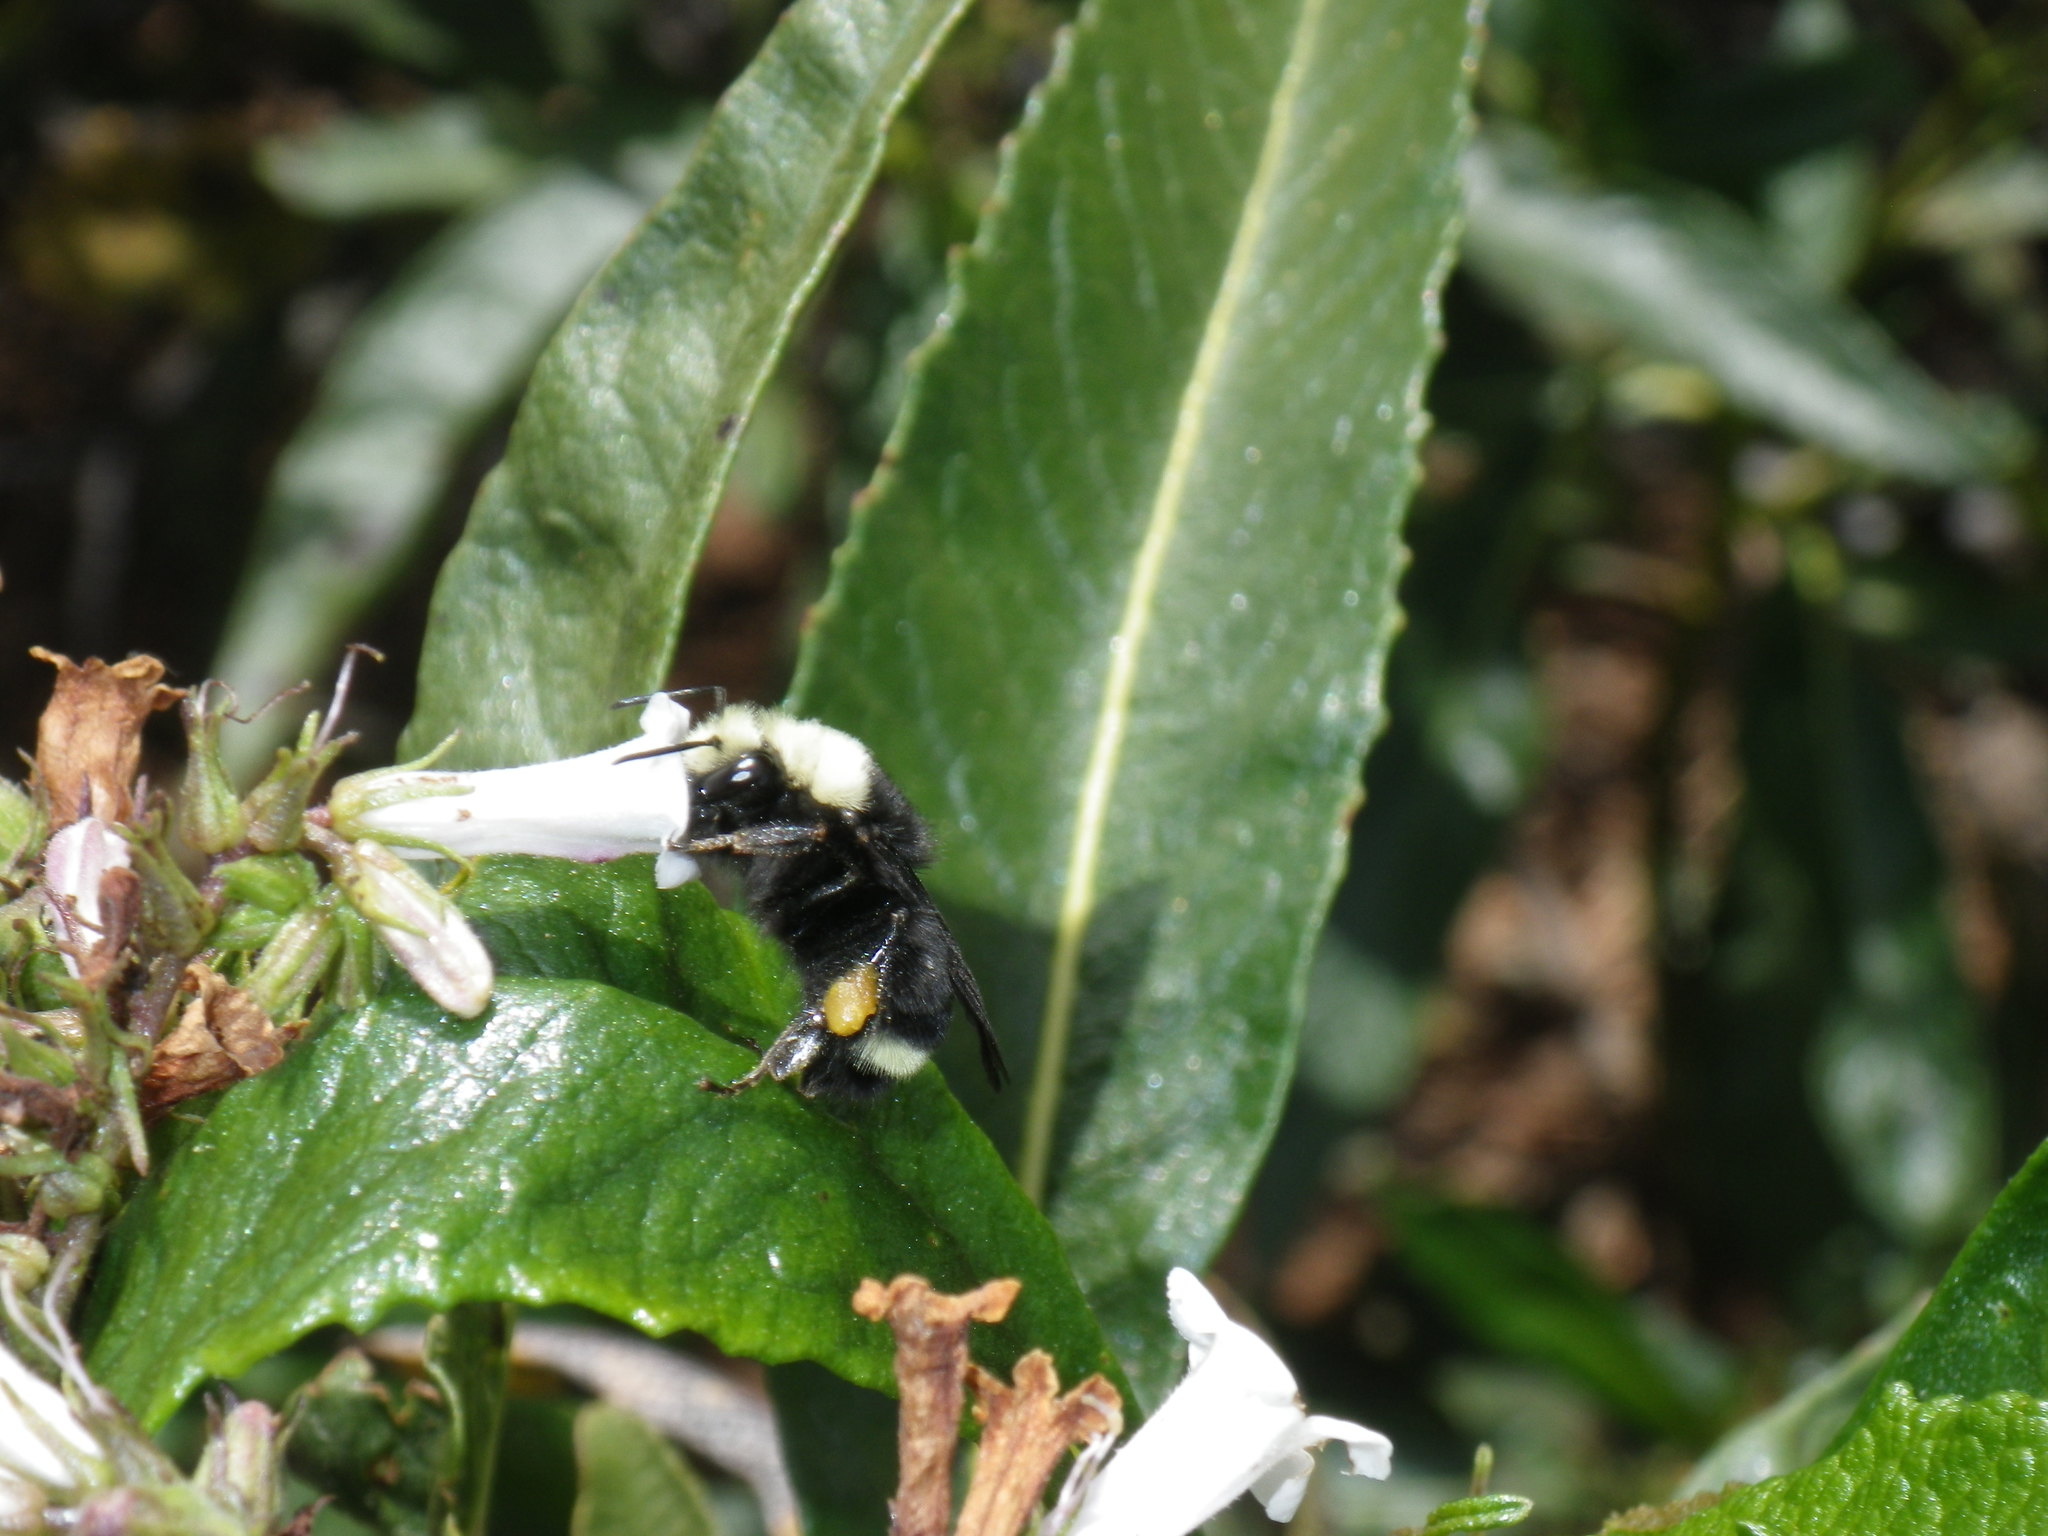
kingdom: Animalia
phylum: Arthropoda
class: Insecta
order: Hymenoptera
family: Apidae
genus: Bombus
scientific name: Bombus vosnesenskii
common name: Vosnesensky bumble bee
